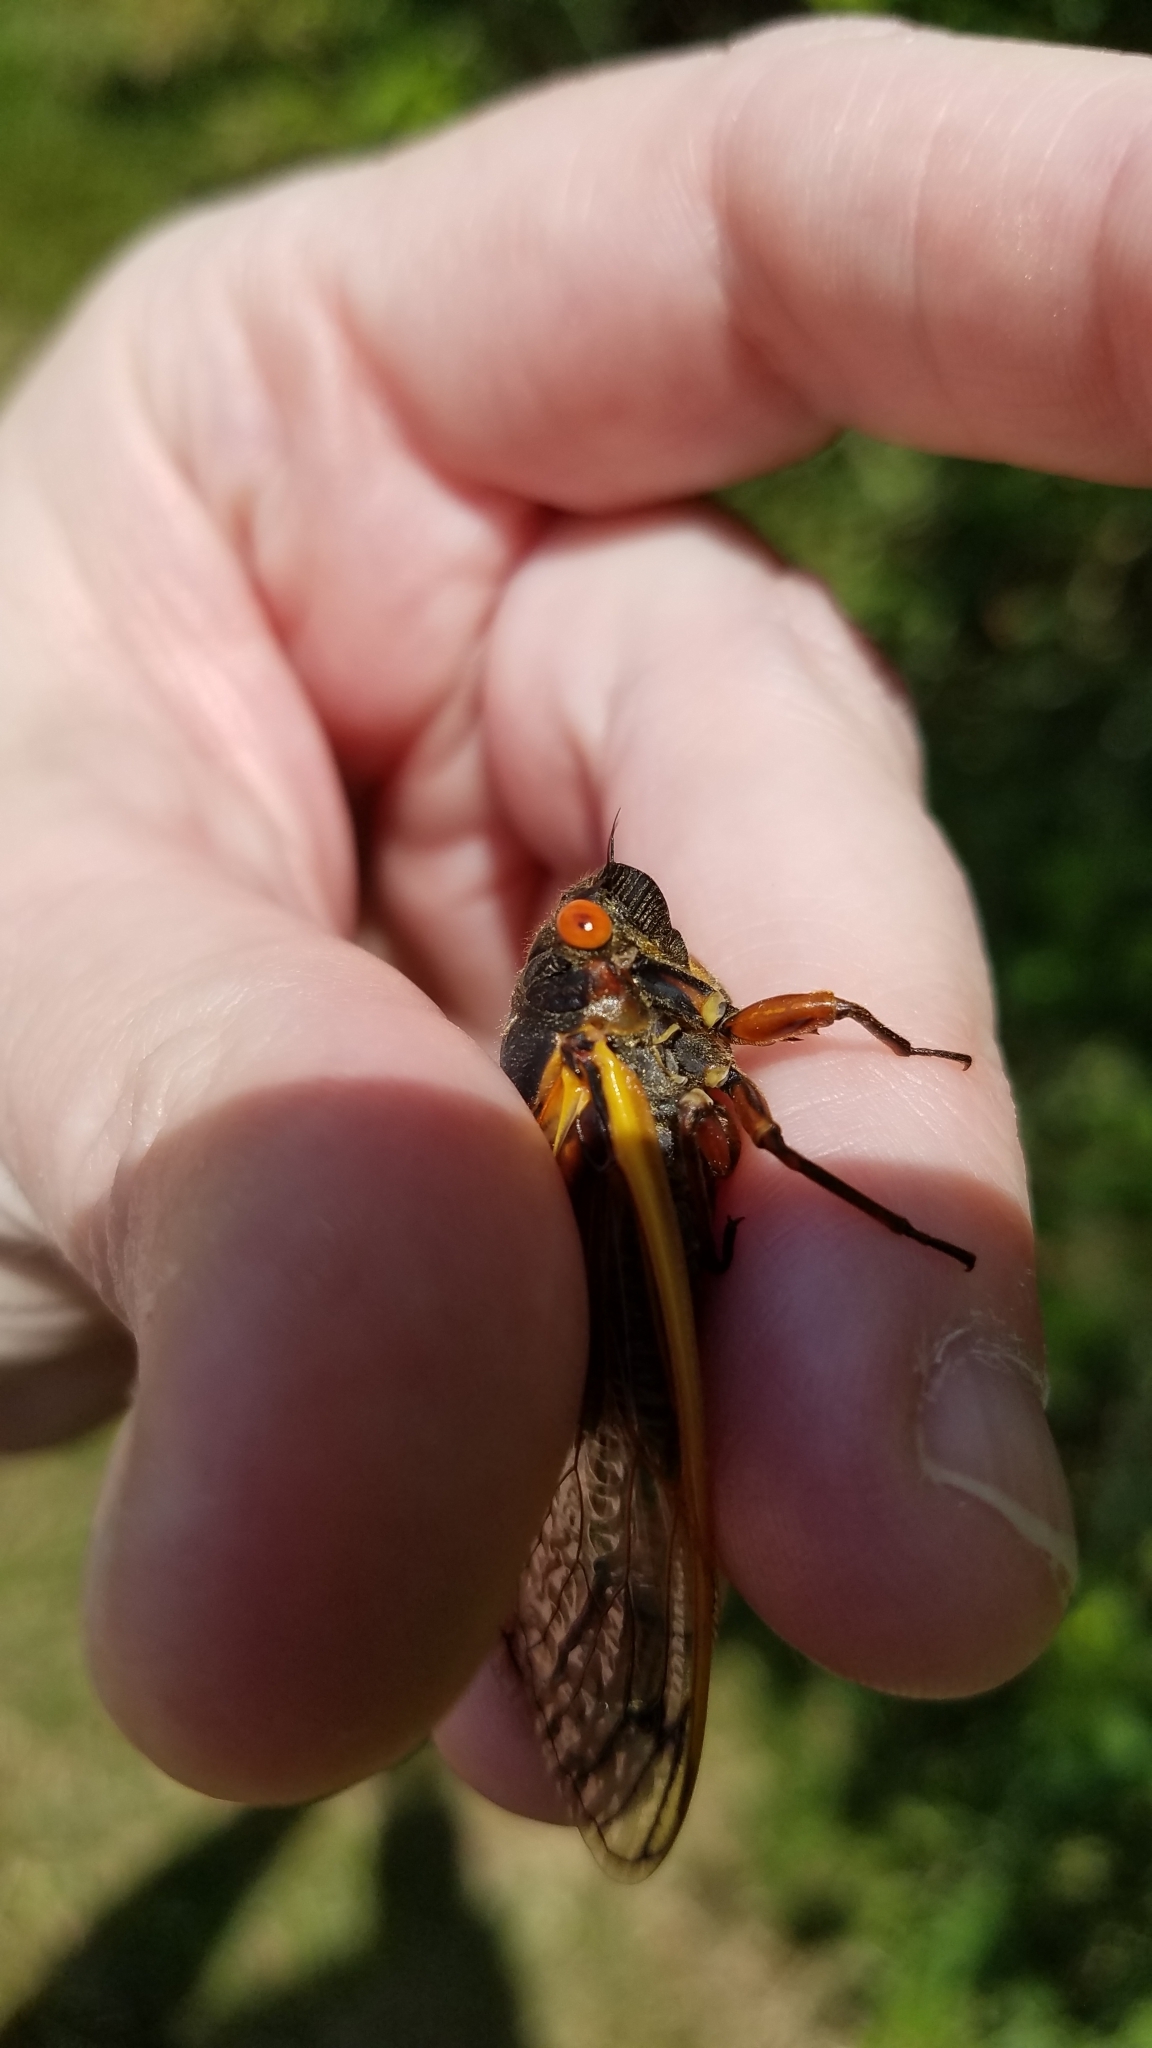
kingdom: Animalia
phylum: Arthropoda
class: Insecta
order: Hemiptera
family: Cicadidae
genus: Magicicada
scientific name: Magicicada septendecim
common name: Periodical cicada
